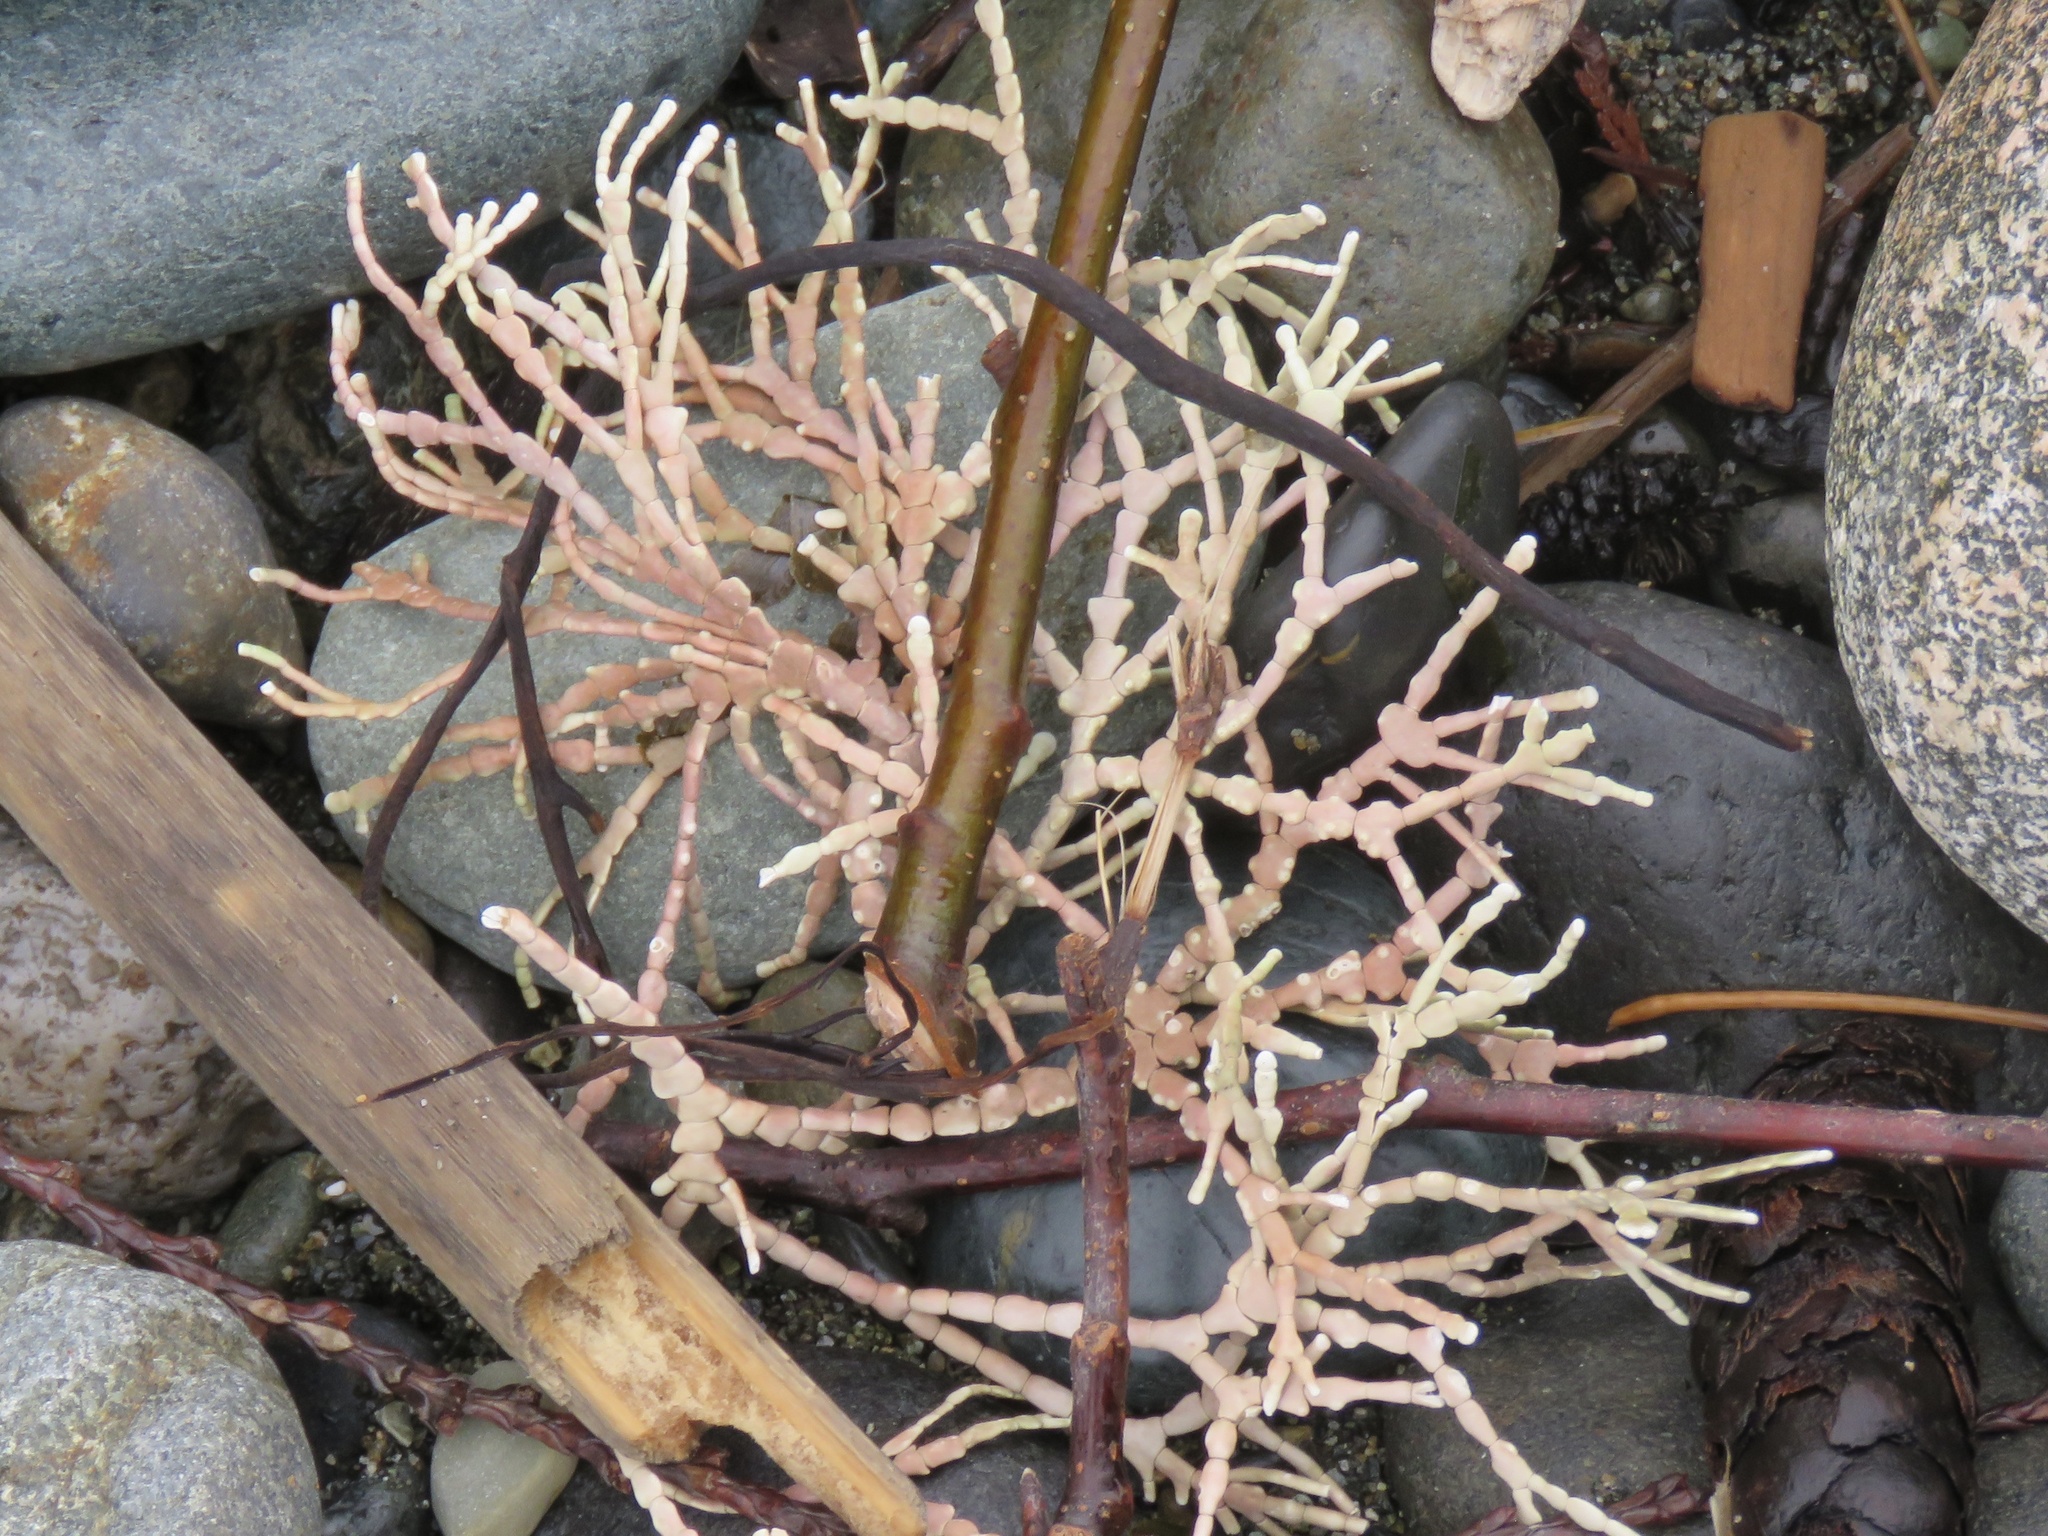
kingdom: Plantae
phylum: Rhodophyta
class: Florideophyceae
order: Corallinales
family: Corallinaceae
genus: Calliarthron
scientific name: Calliarthron cheilosporioides
